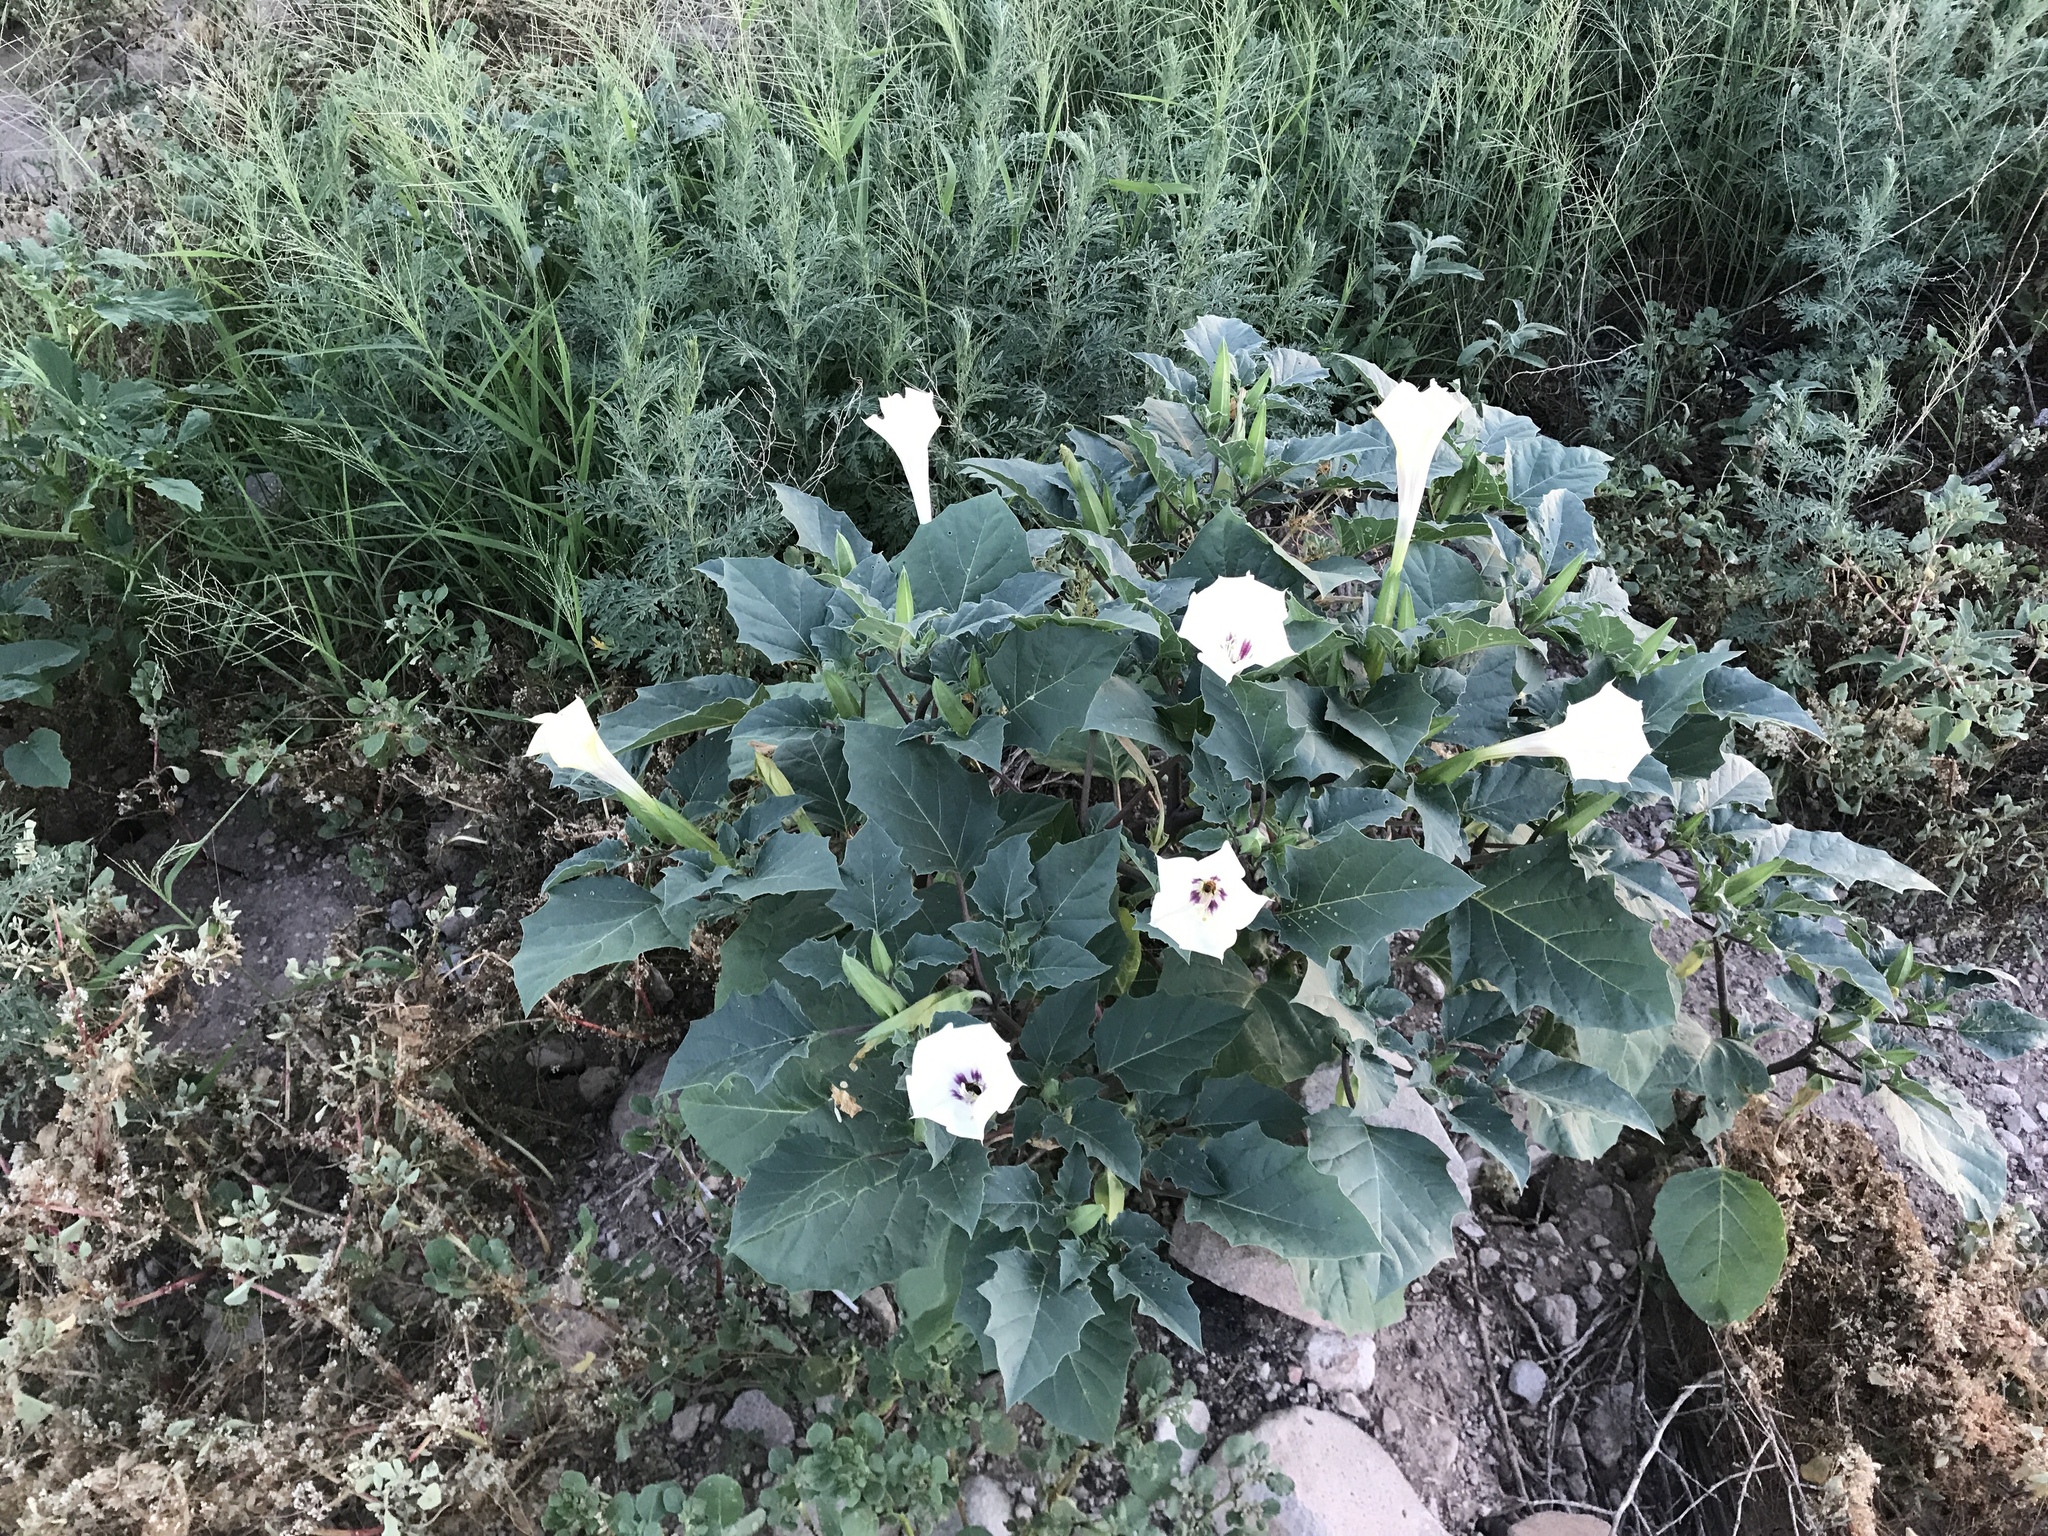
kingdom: Plantae
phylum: Tracheophyta
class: Magnoliopsida
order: Solanales
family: Solanaceae
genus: Datura
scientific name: Datura discolor
